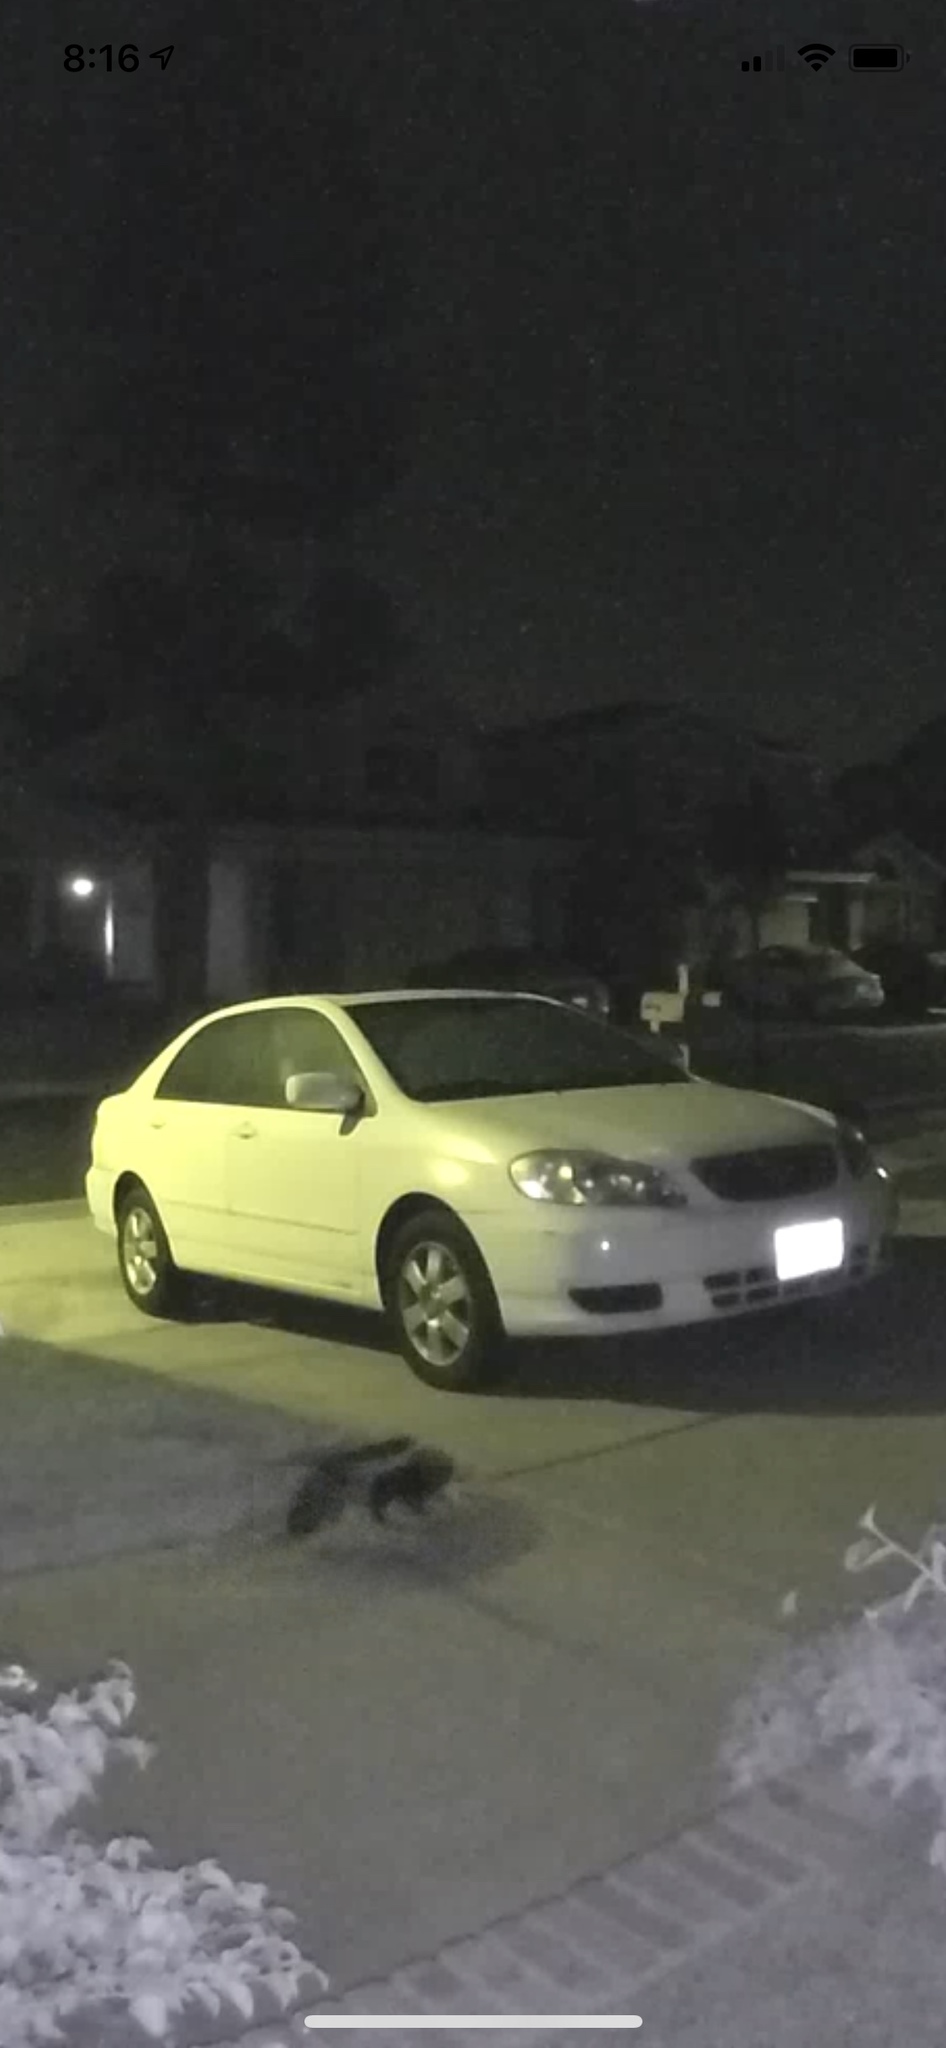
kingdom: Animalia
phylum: Chordata
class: Mammalia
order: Carnivora
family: Mephitidae
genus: Mephitis
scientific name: Mephitis mephitis
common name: Striped skunk
